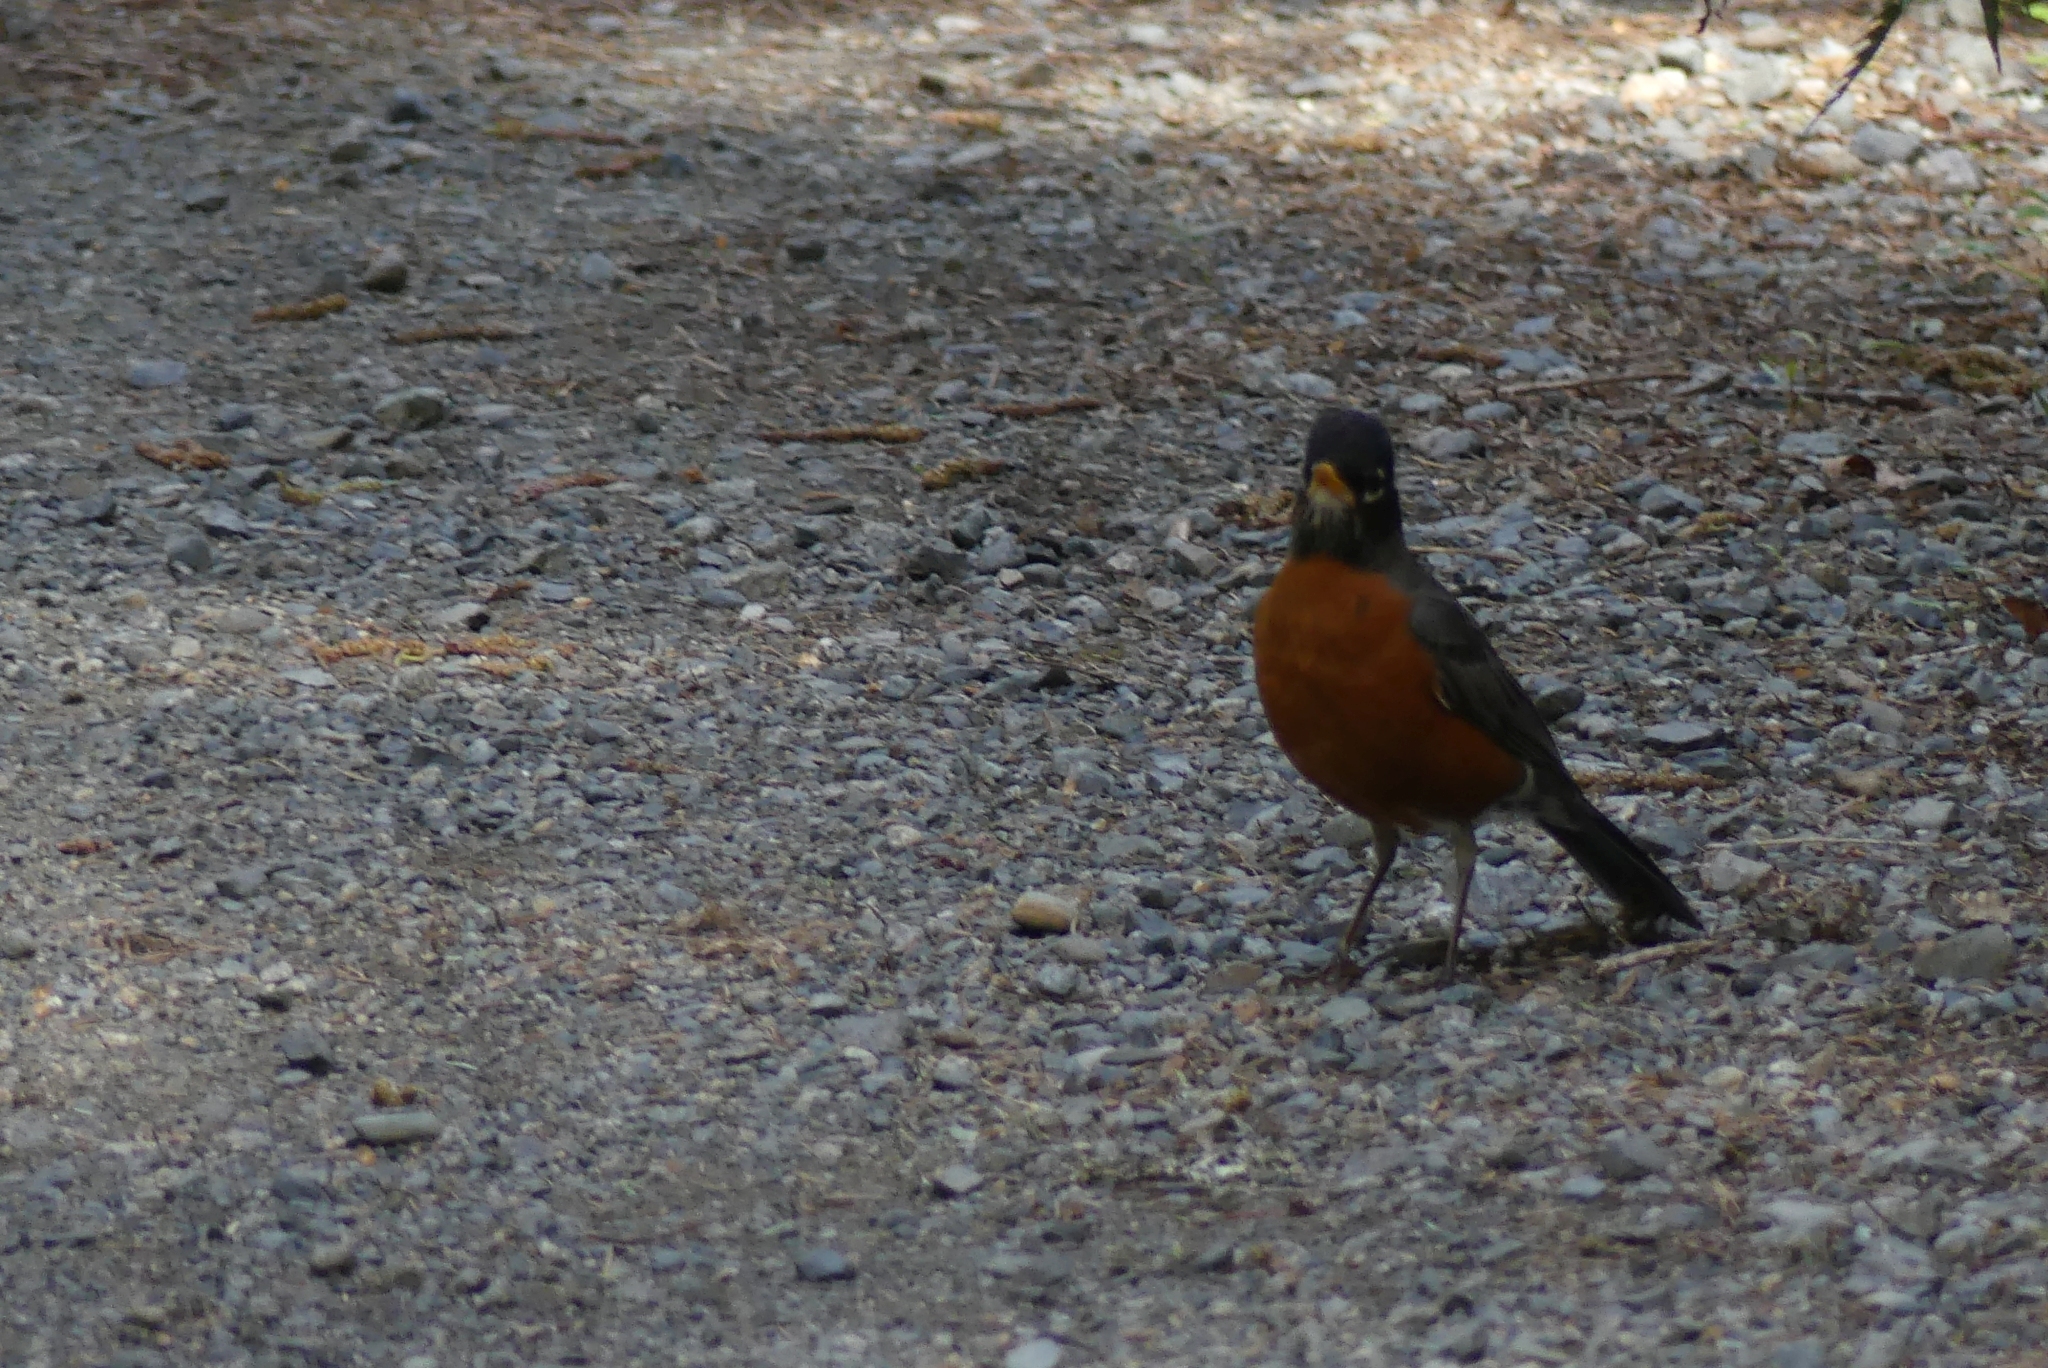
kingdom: Animalia
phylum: Chordata
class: Aves
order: Passeriformes
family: Turdidae
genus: Turdus
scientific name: Turdus migratorius
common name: American robin
